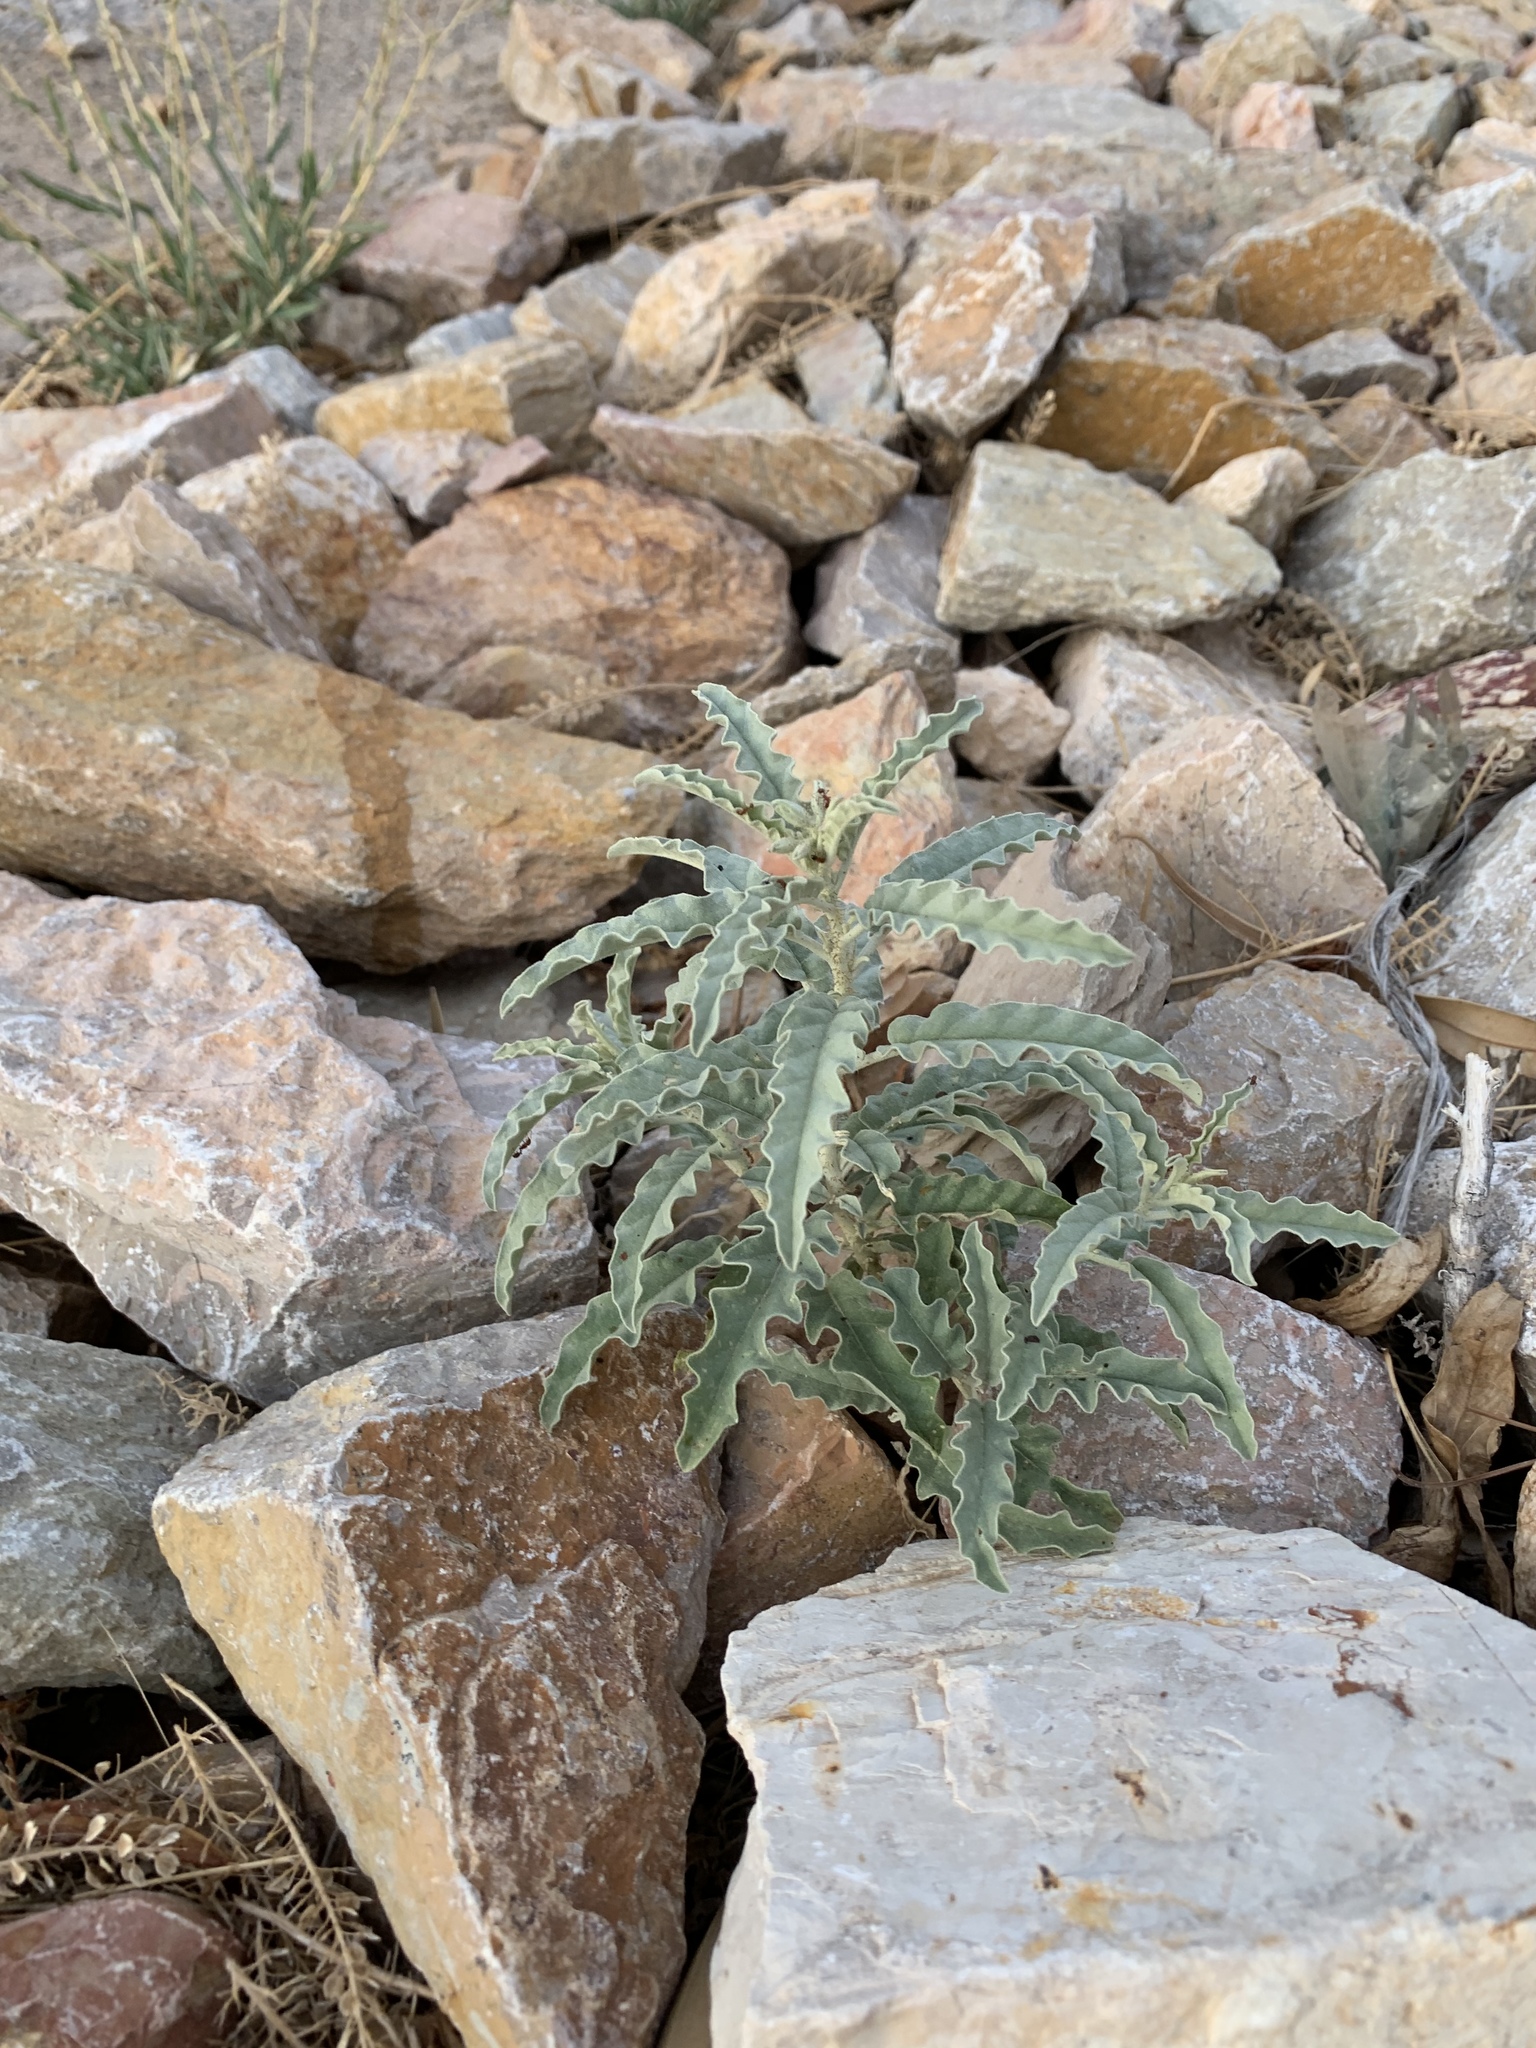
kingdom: Plantae
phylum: Tracheophyta
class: Magnoliopsida
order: Solanales
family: Solanaceae
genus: Solanum
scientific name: Solanum elaeagnifolium
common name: Silverleaf nightshade
